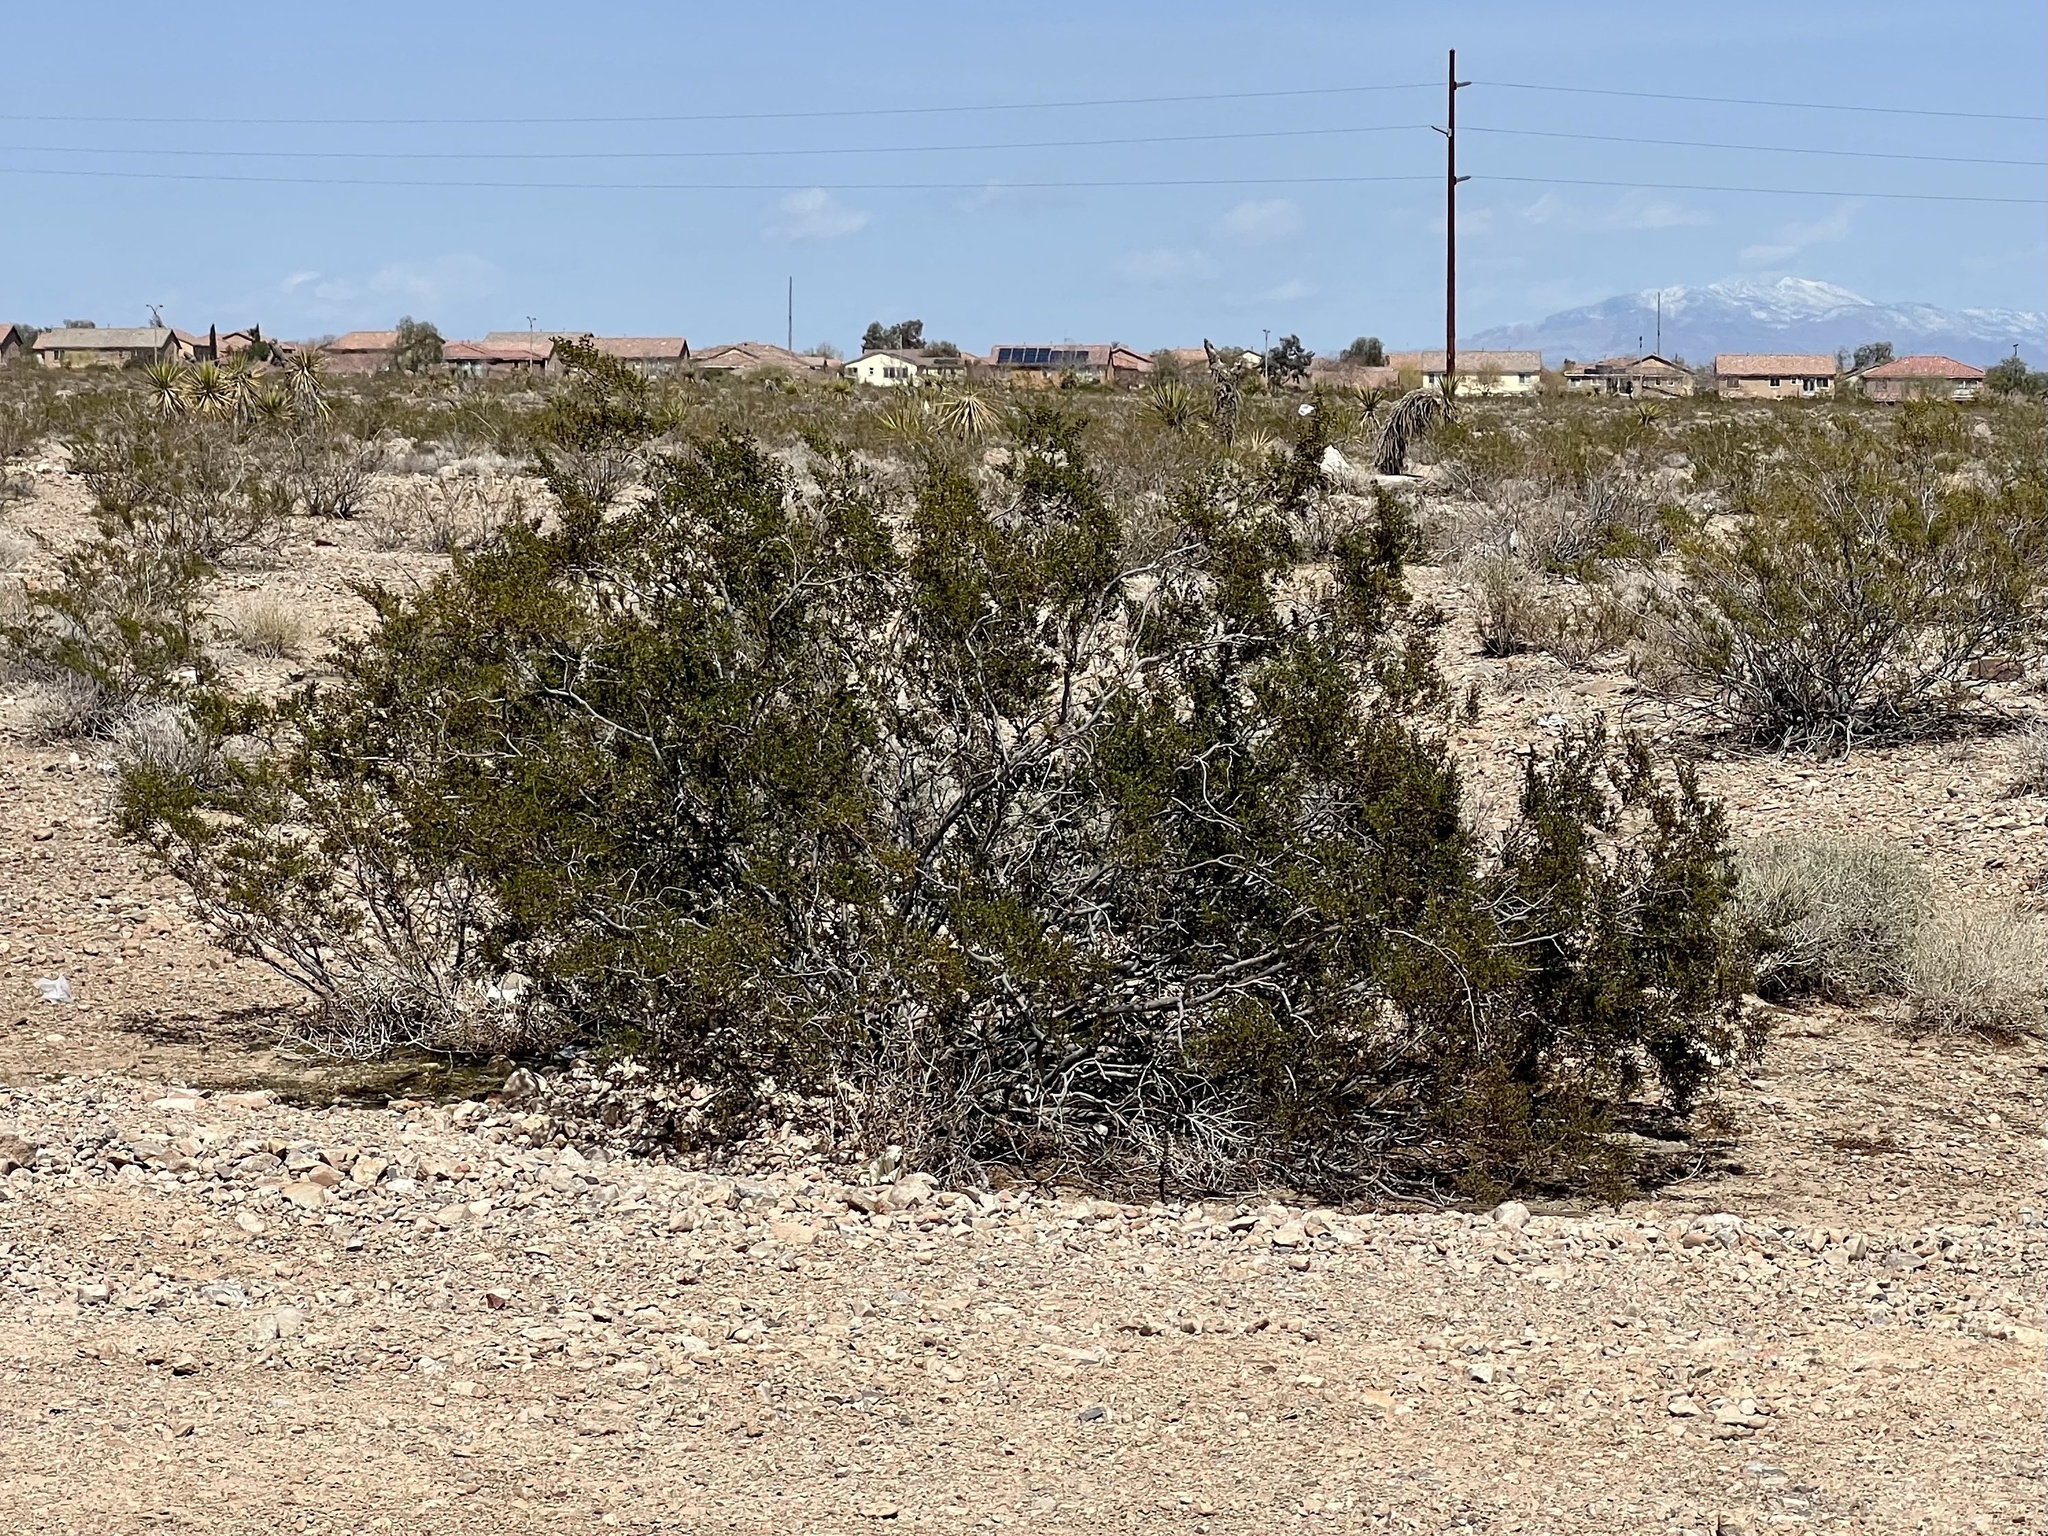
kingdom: Plantae
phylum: Tracheophyta
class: Magnoliopsida
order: Zygophyllales
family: Zygophyllaceae
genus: Larrea
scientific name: Larrea tridentata
